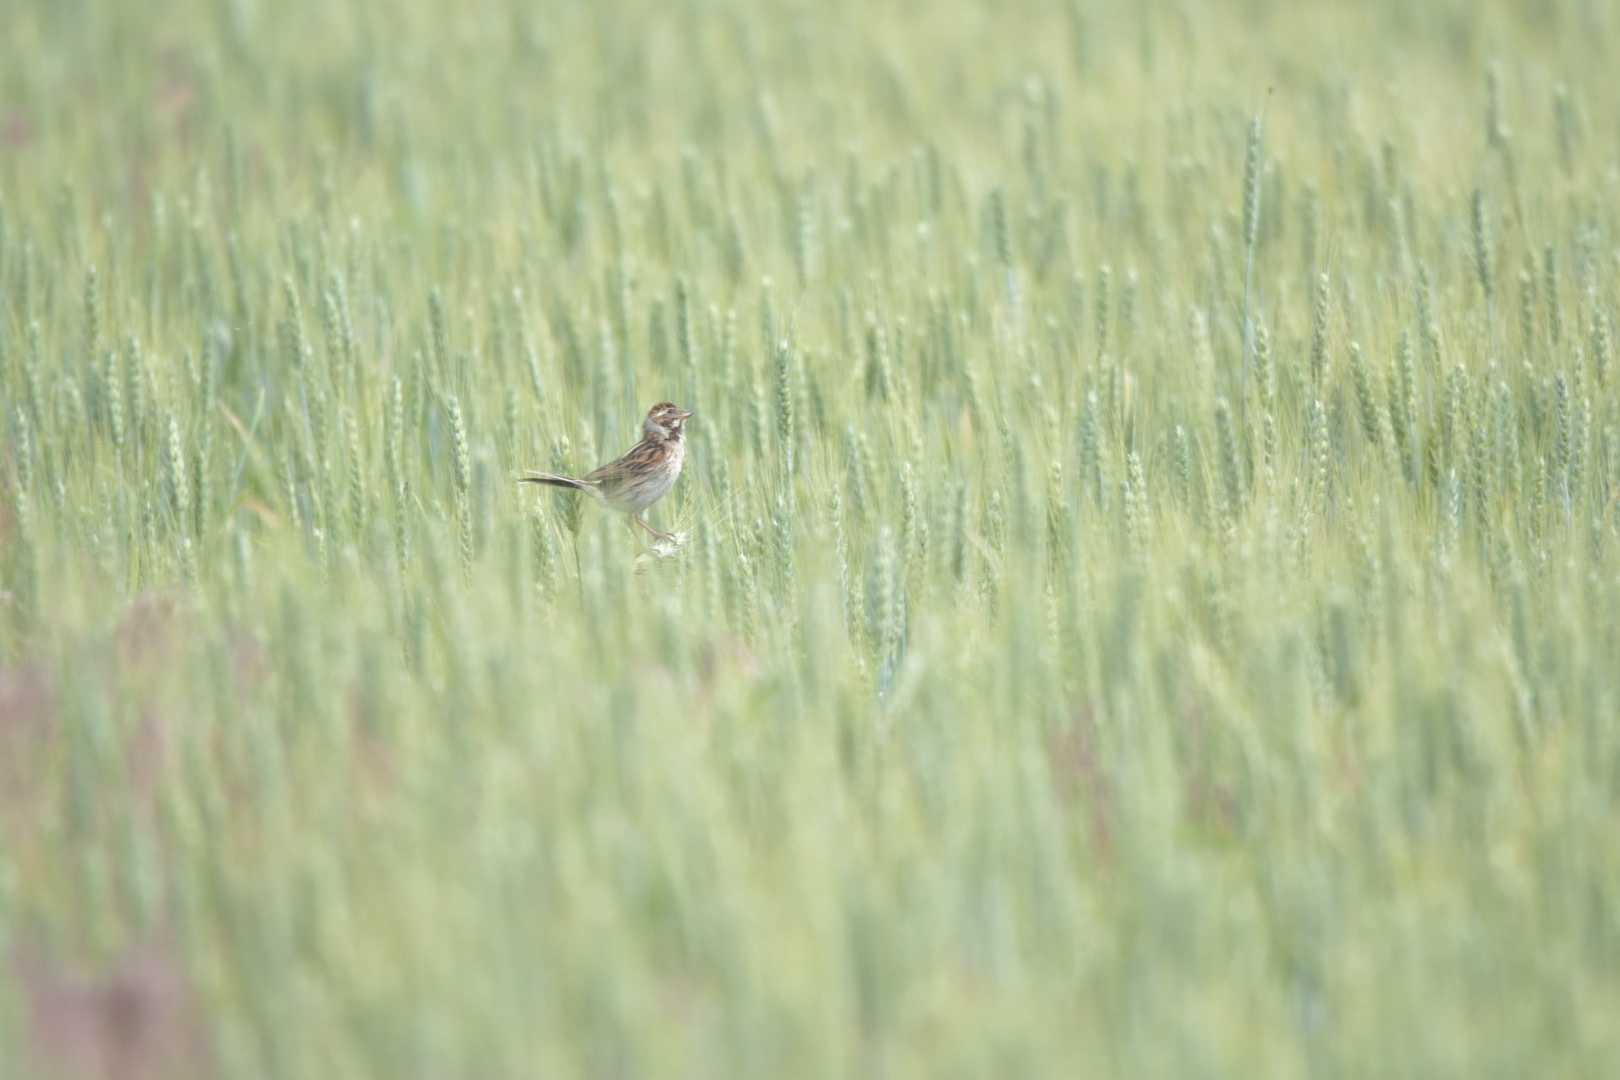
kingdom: Animalia
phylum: Chordata
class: Aves
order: Passeriformes
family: Emberizidae
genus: Emberiza
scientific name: Emberiza schoeniclus
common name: Reed bunting
